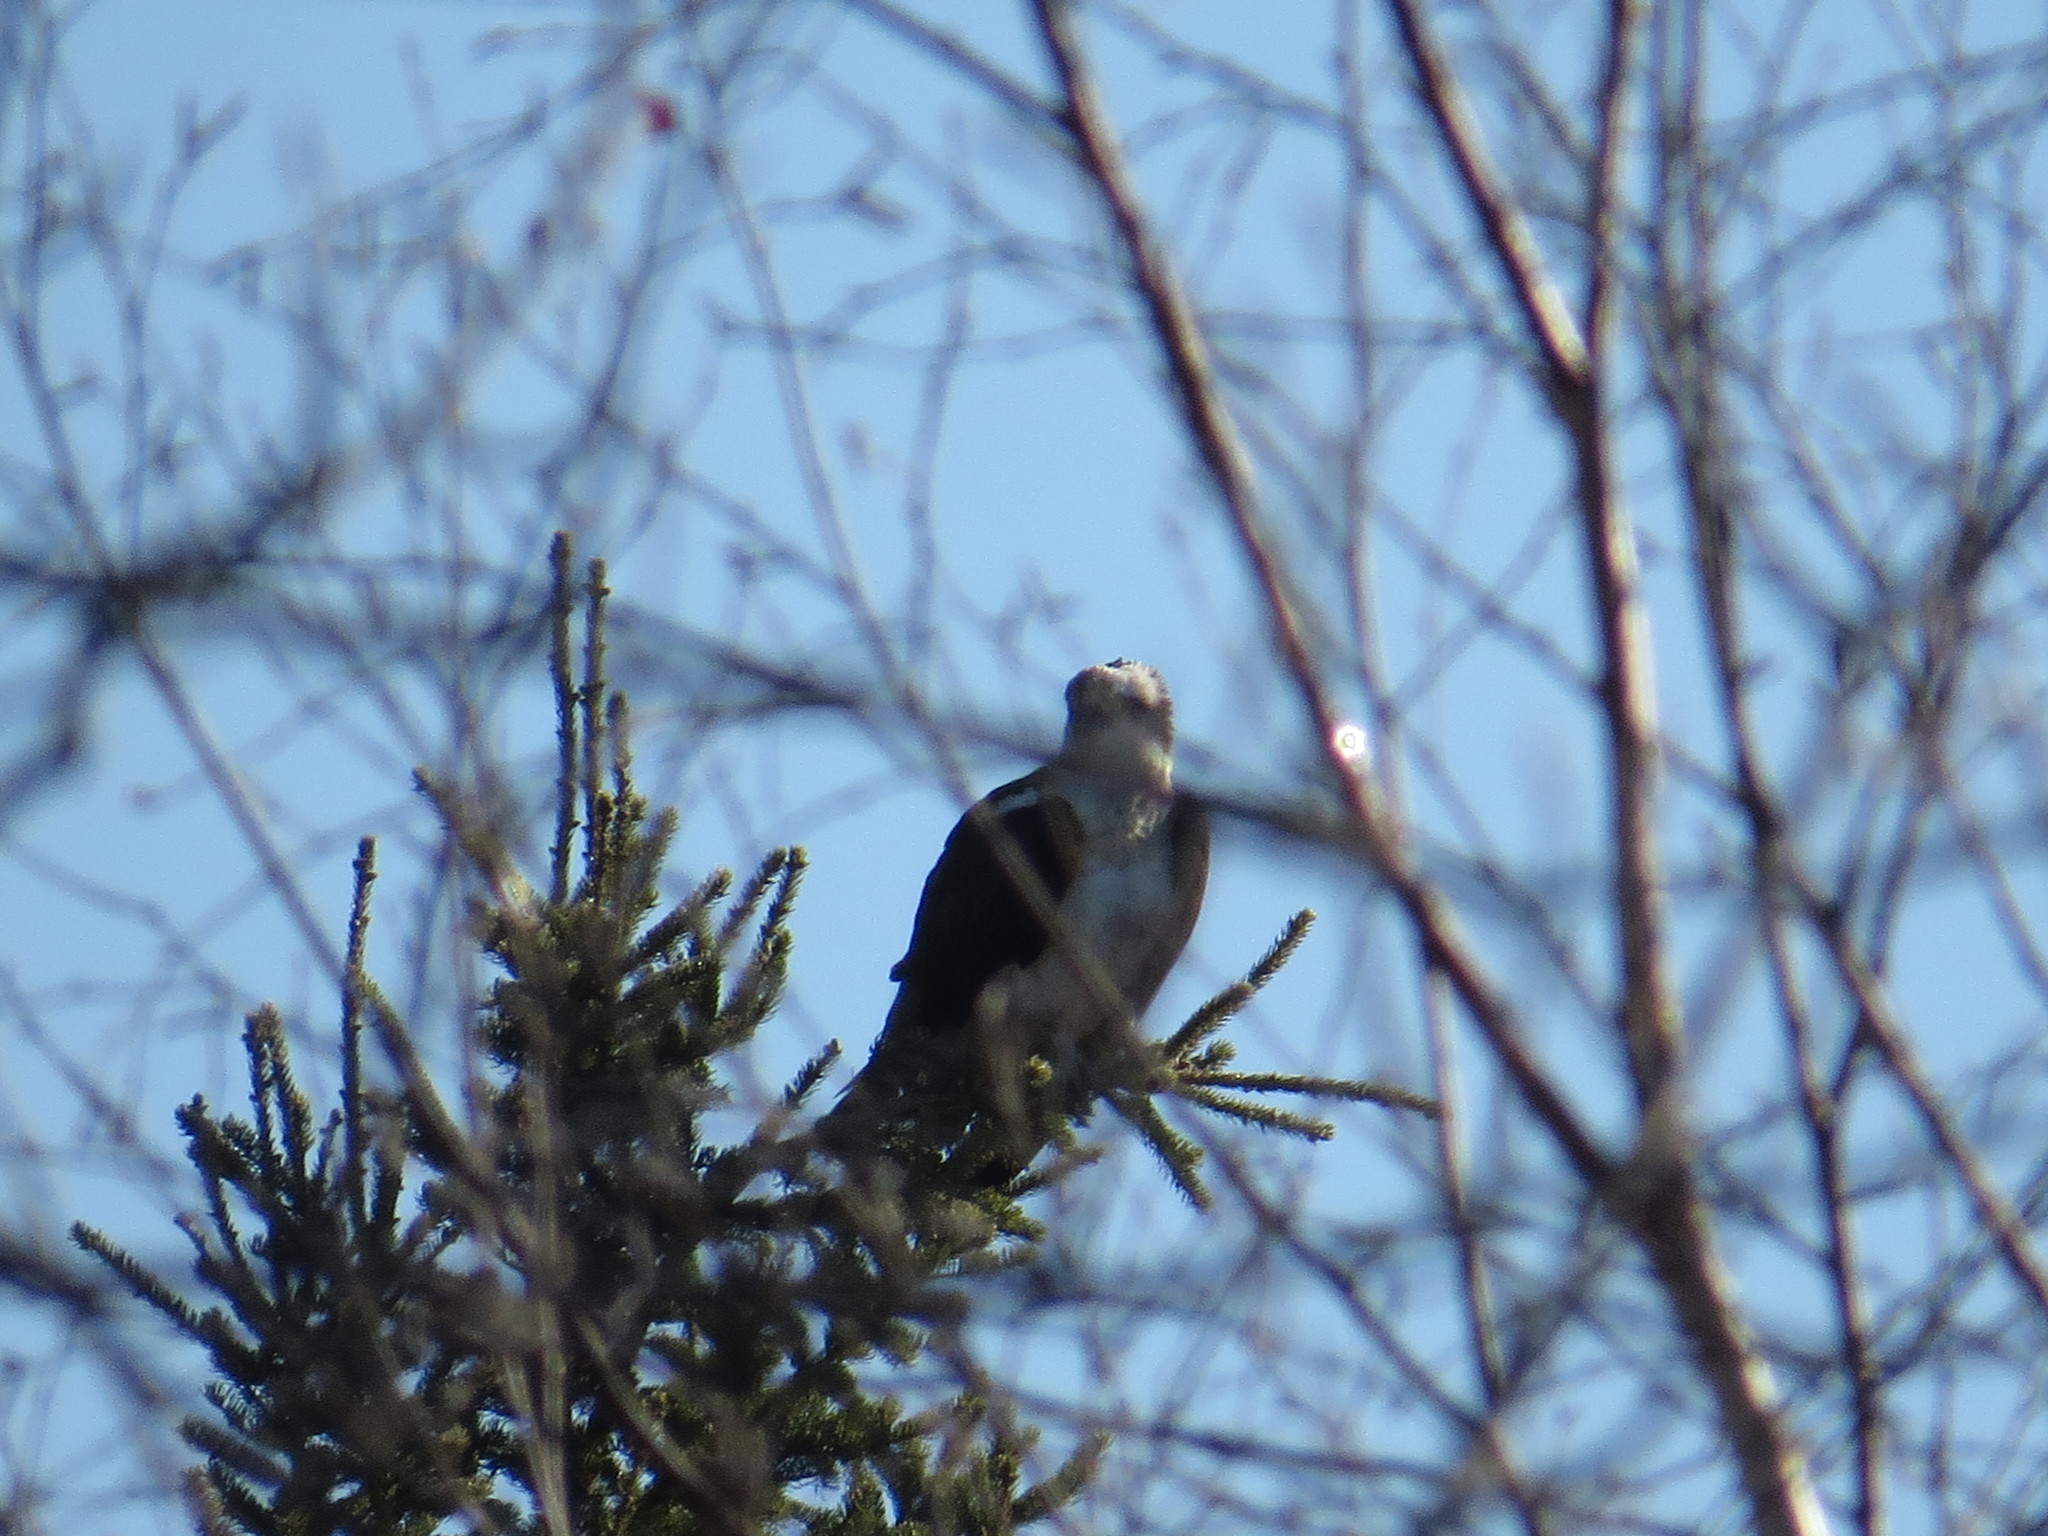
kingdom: Animalia
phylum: Chordata
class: Aves
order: Accipitriformes
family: Pandionidae
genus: Pandion
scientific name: Pandion haliaetus
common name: Osprey
